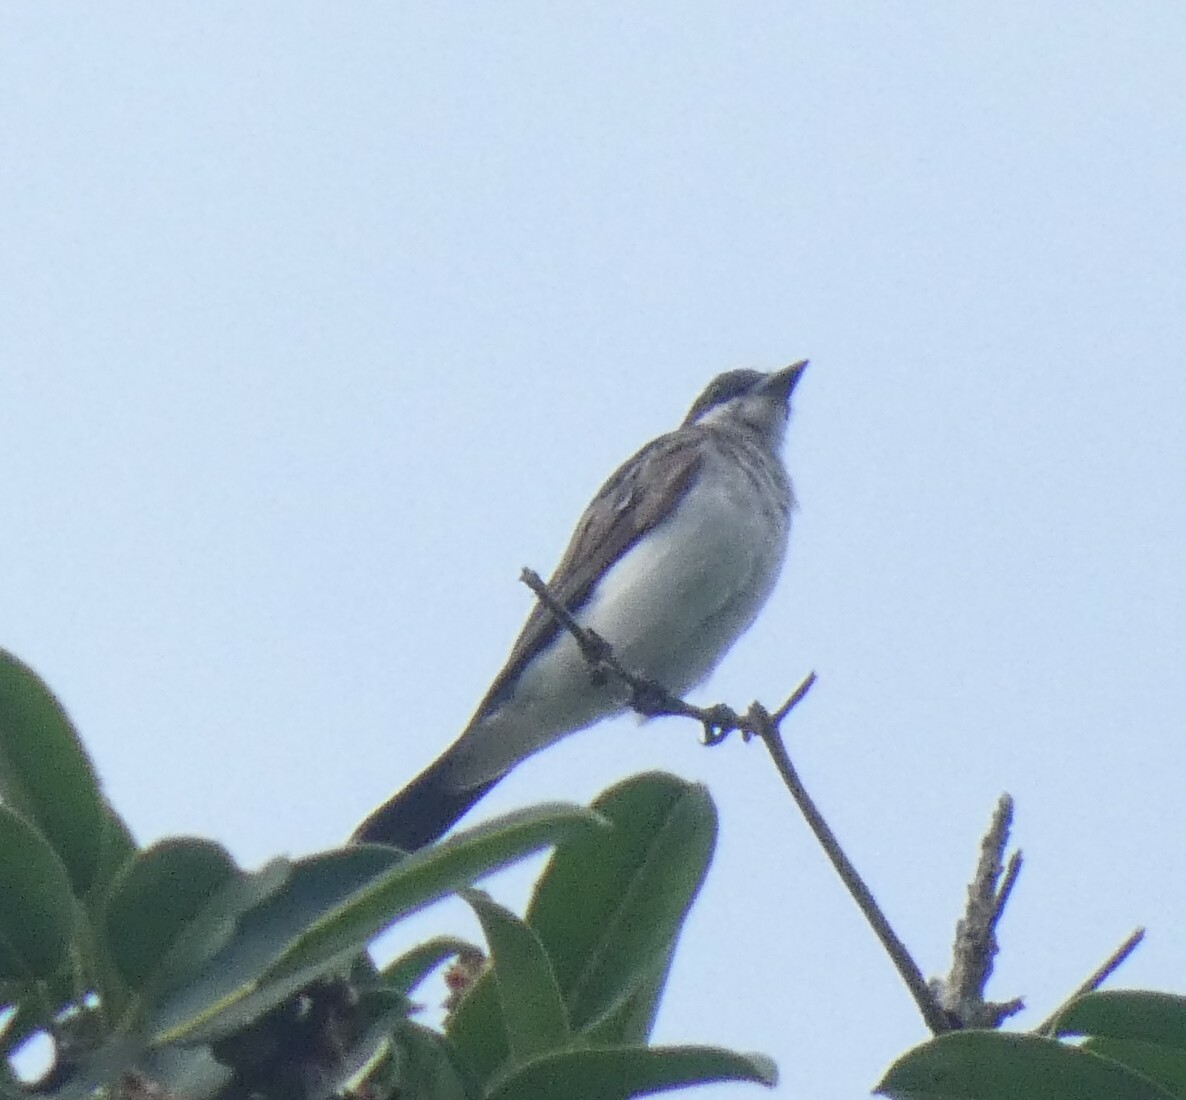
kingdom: Animalia
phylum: Chordata
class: Aves
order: Passeriformes
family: Tyrannidae
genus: Tyrannus
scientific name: Tyrannus tyrannus
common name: Eastern kingbird
